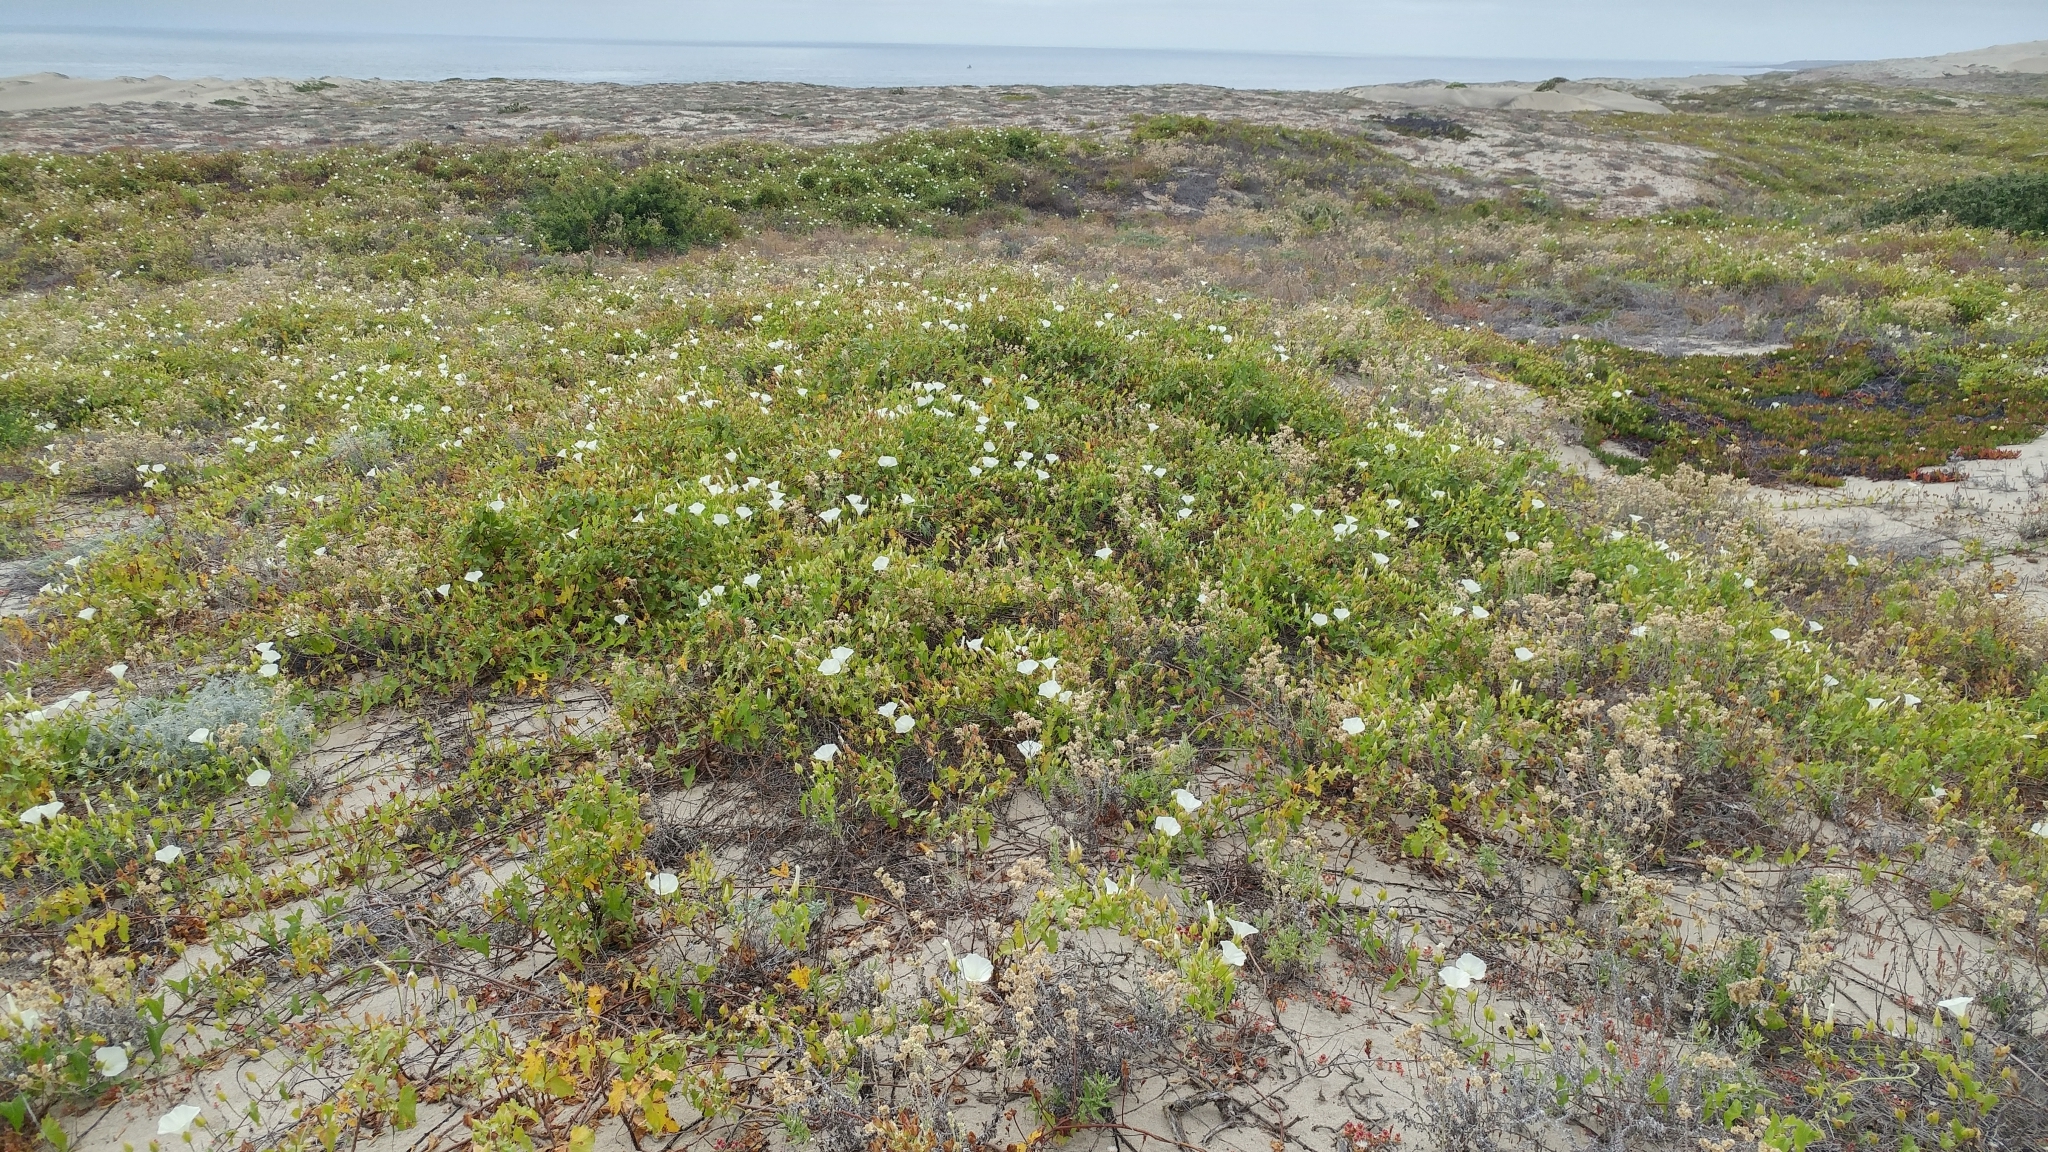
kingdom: Plantae
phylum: Tracheophyta
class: Magnoliopsida
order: Solanales
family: Convolvulaceae
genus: Calystegia
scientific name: Calystegia macrostegia
